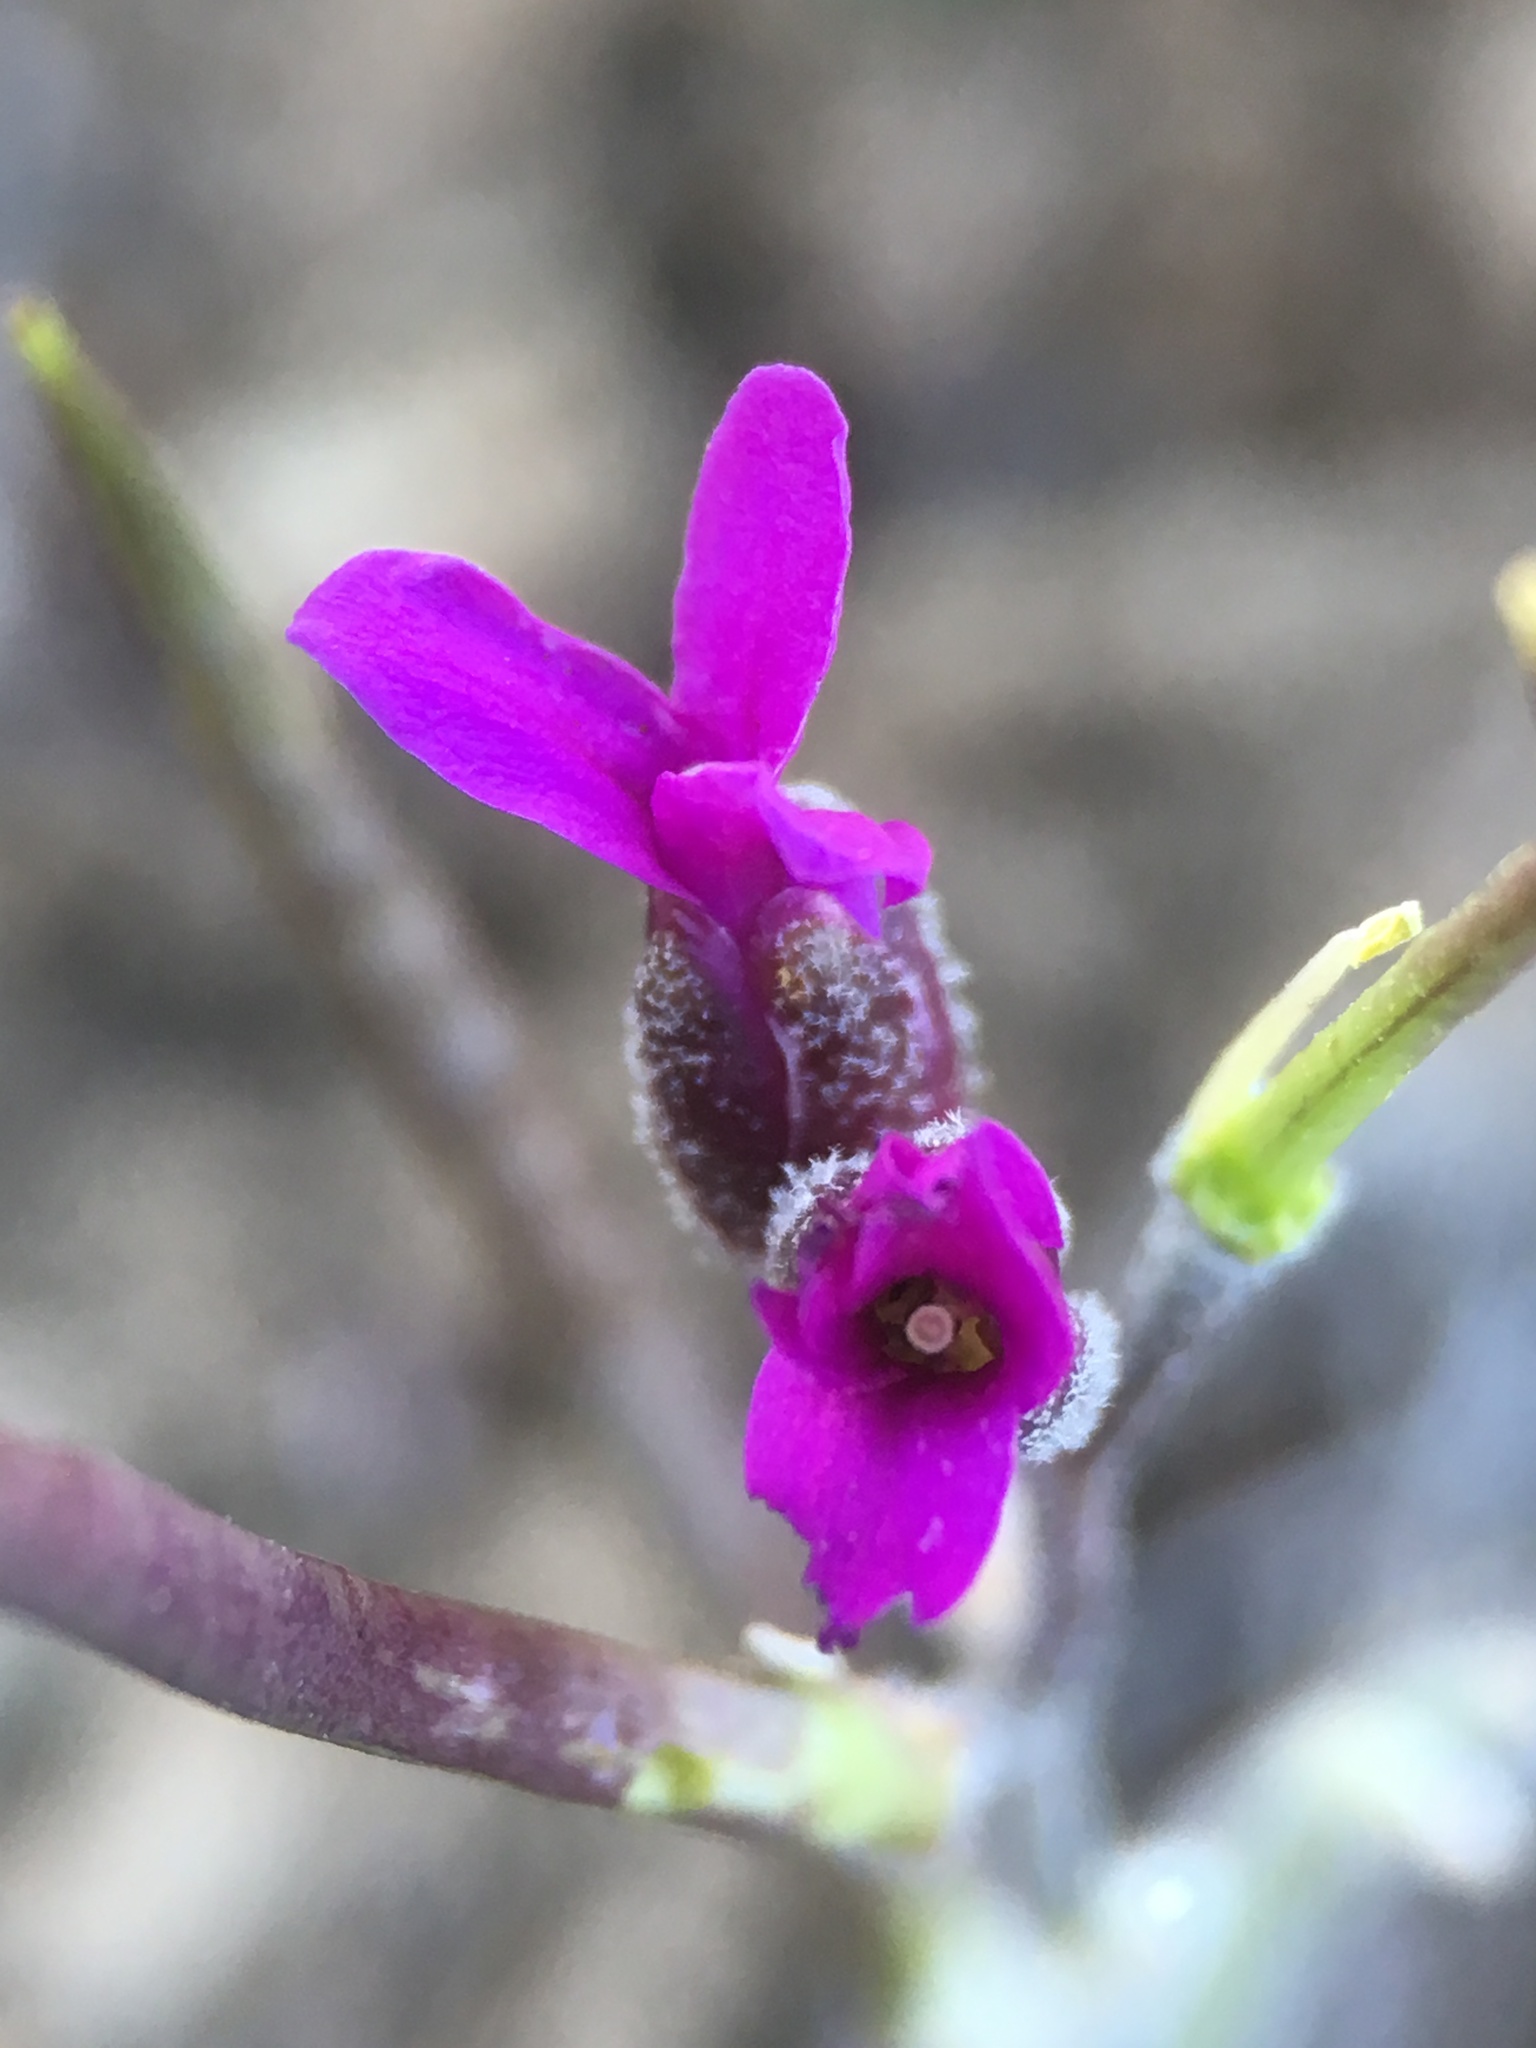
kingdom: Plantae
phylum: Tracheophyta
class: Magnoliopsida
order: Brassicales
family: Brassicaceae
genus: Boechera
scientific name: Boechera johnstonii
